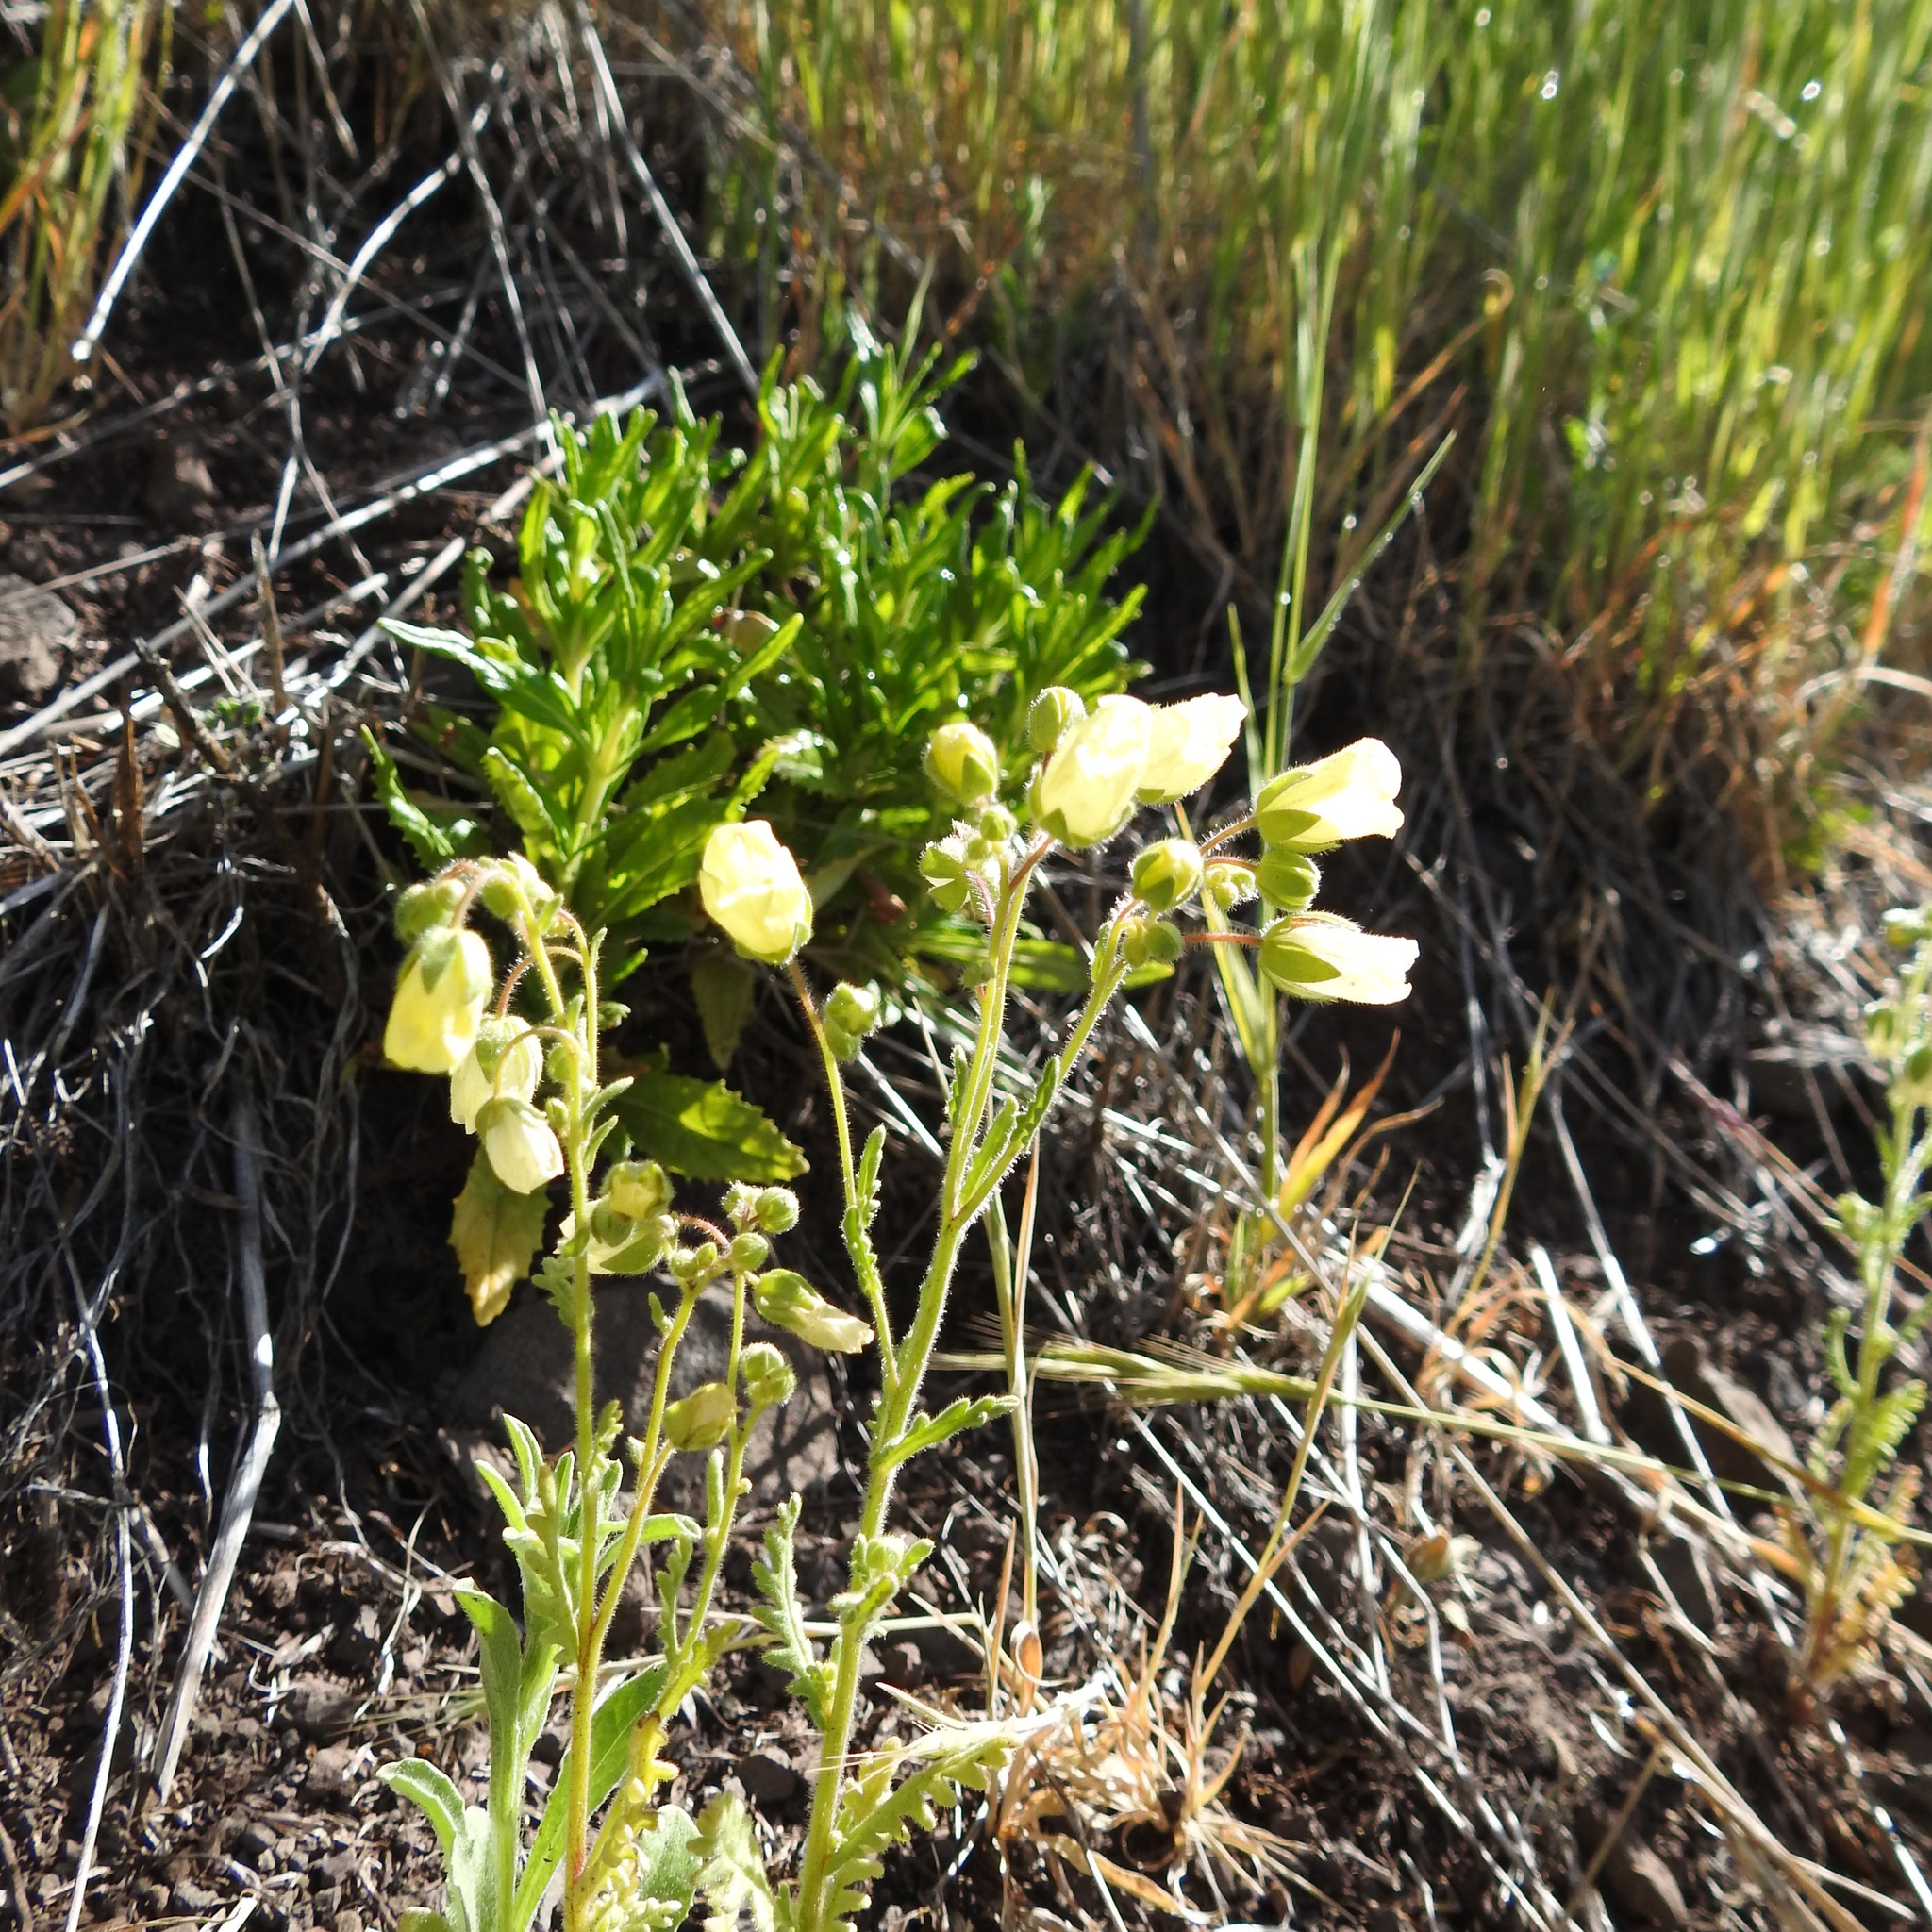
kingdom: Plantae
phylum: Tracheophyta
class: Magnoliopsida
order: Boraginales
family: Hydrophyllaceae
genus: Emmenanthe
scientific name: Emmenanthe penduliflora
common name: Whispering-bells
